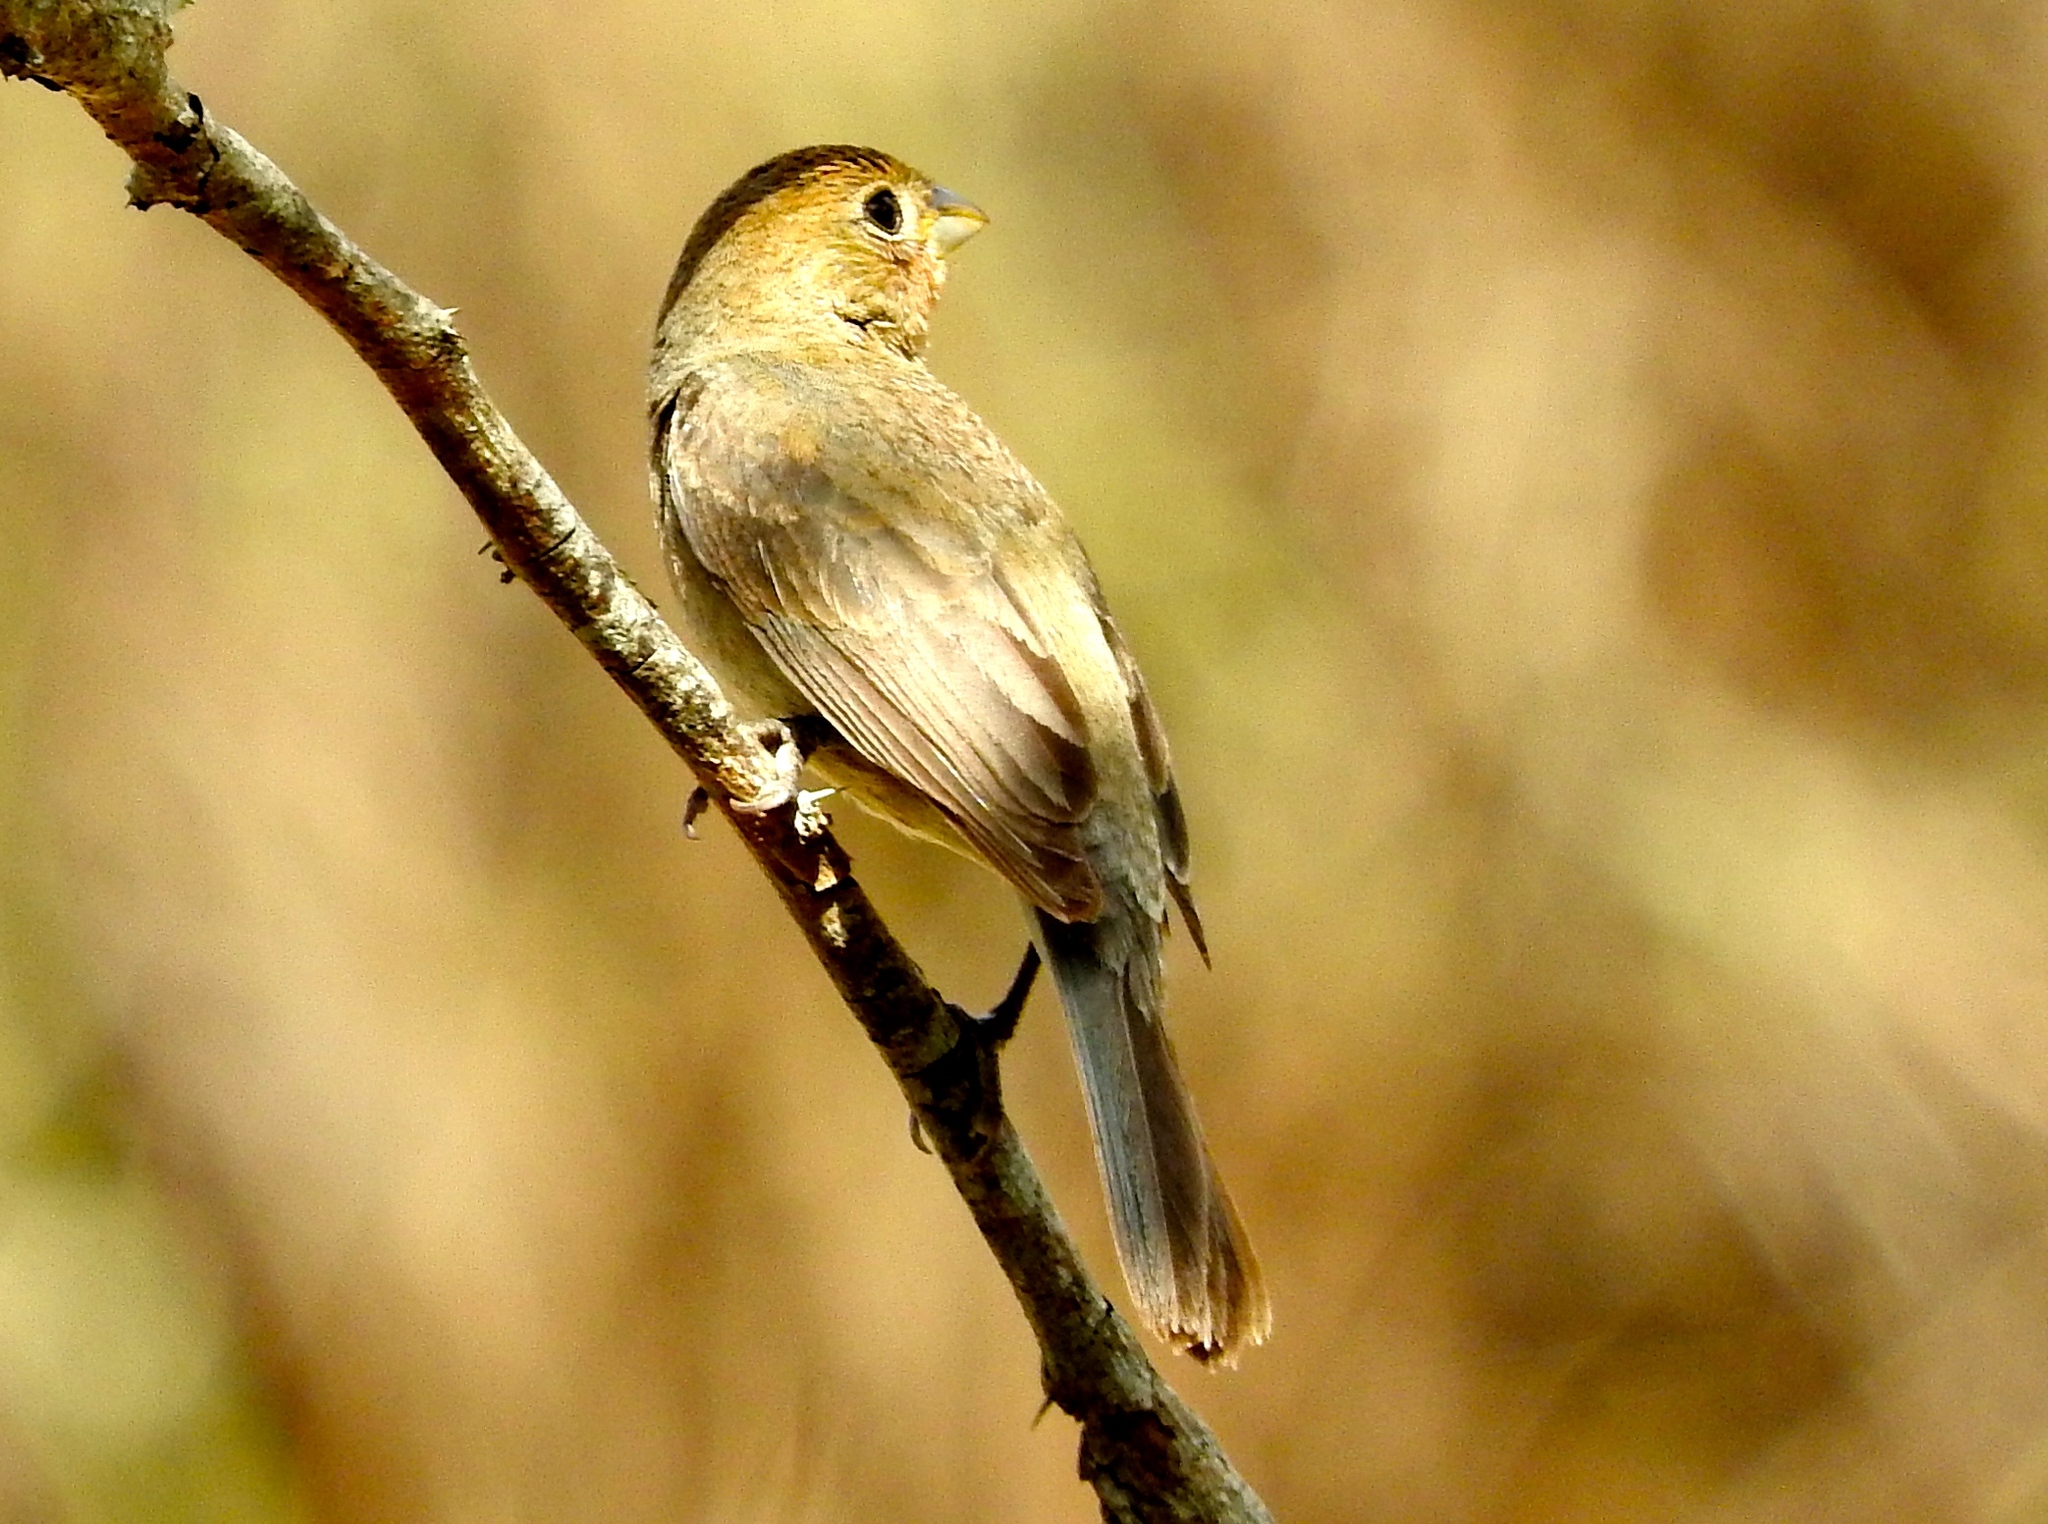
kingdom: Animalia
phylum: Chordata
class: Aves
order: Passeriformes
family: Cardinalidae
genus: Passerina
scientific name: Passerina versicolor
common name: Varied bunting
